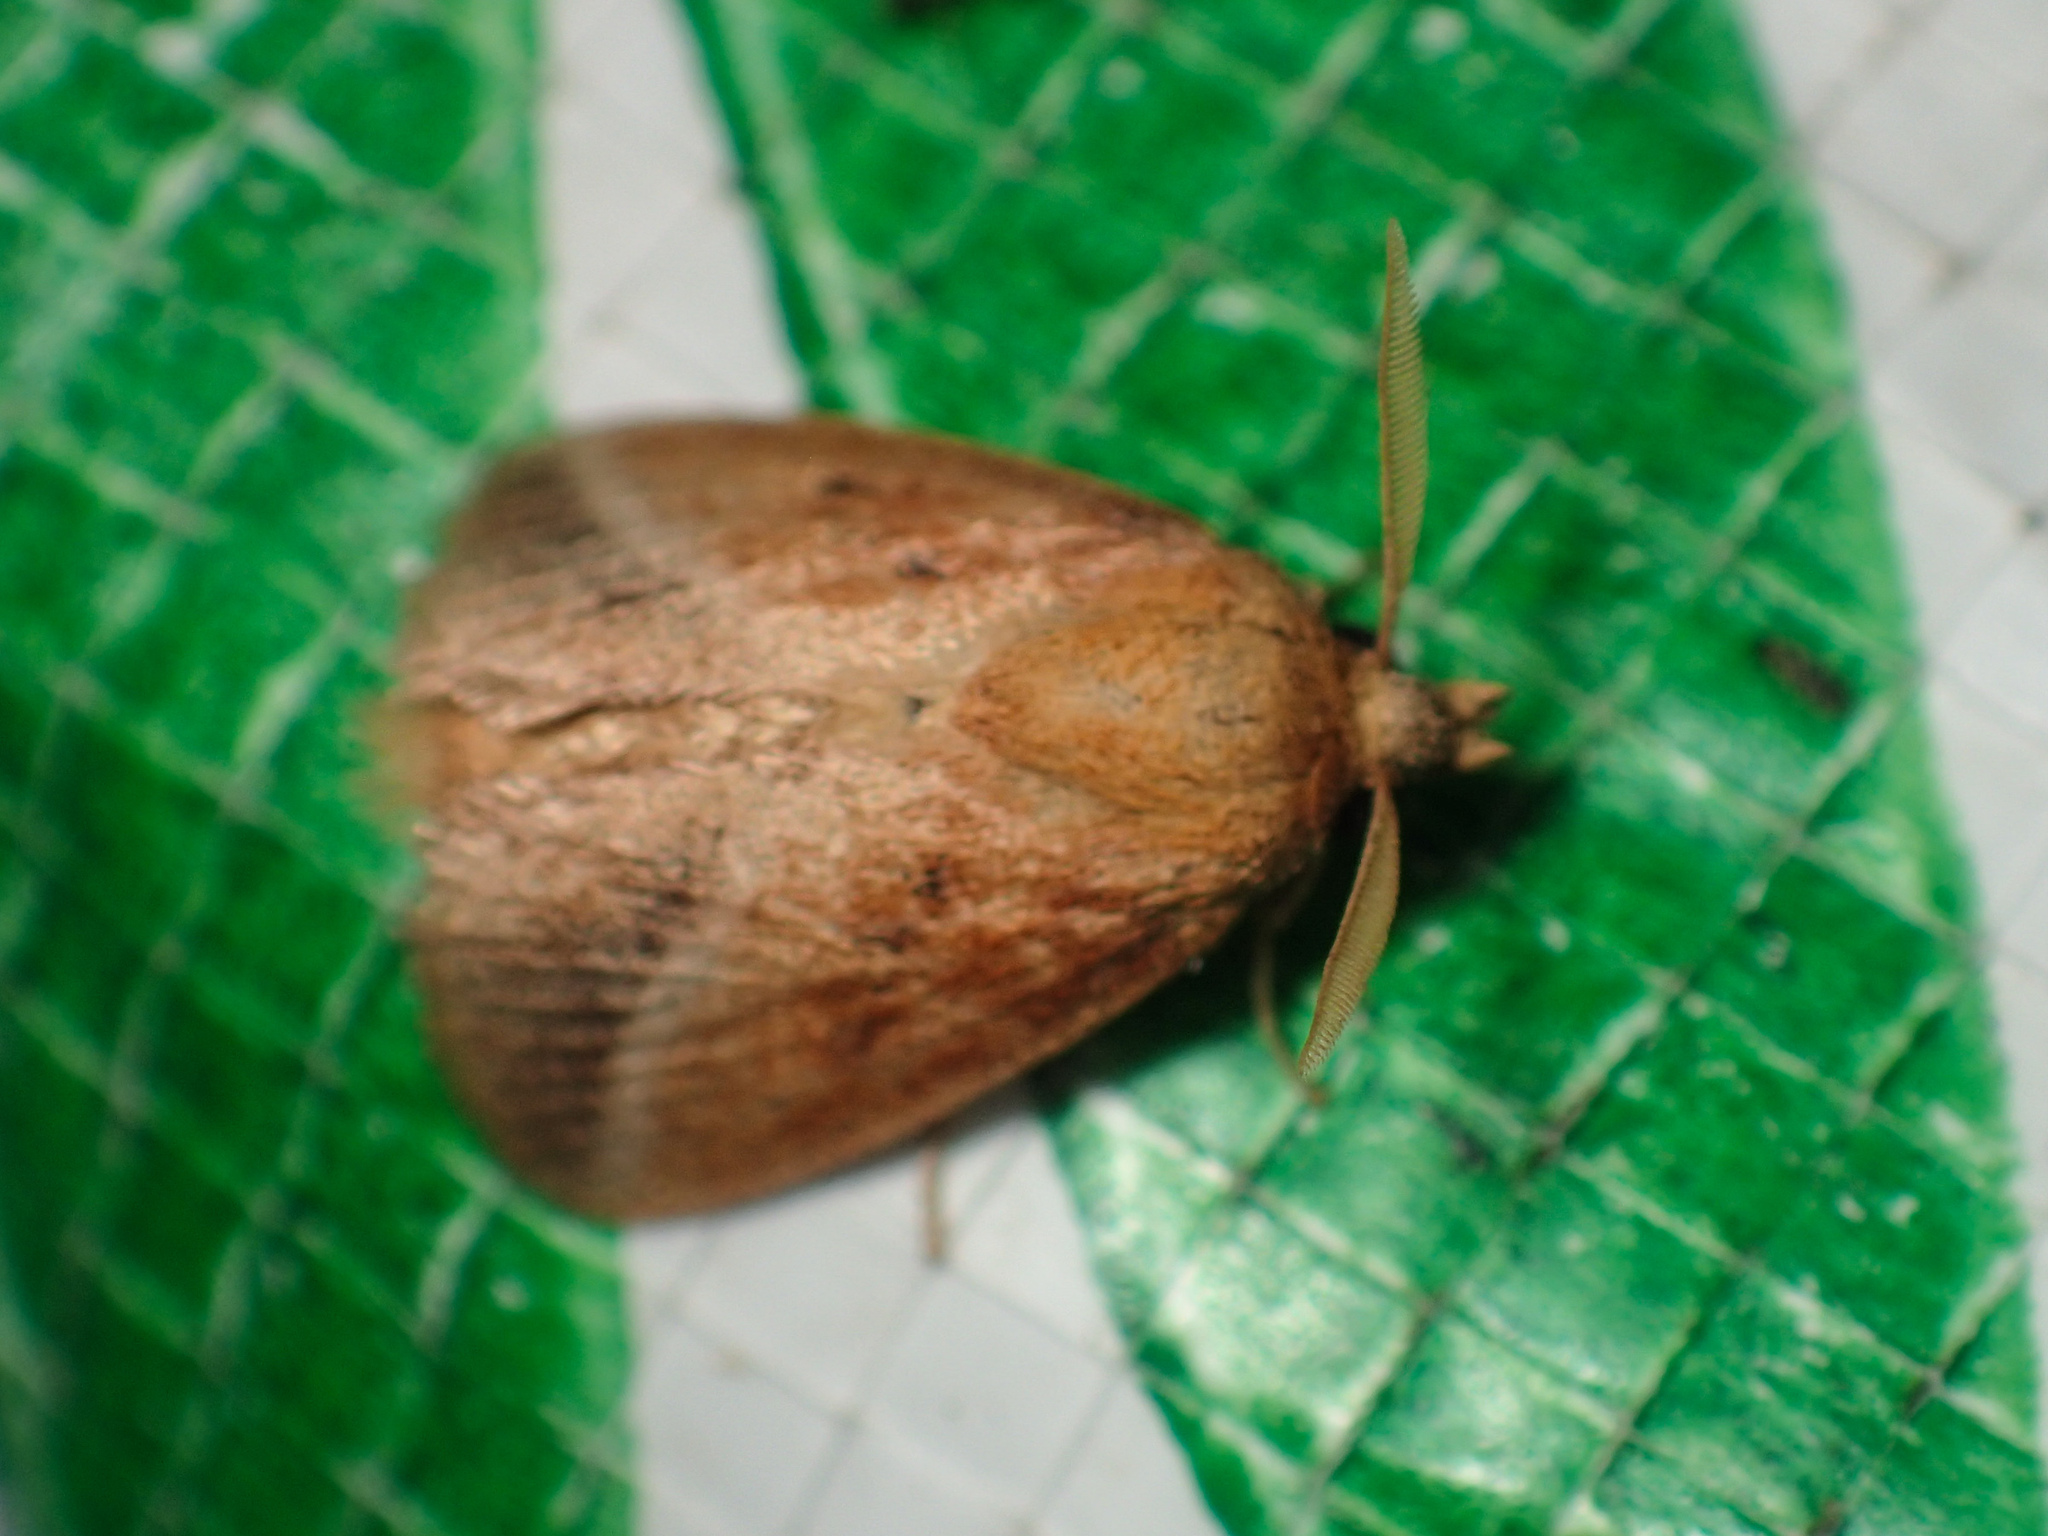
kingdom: Animalia
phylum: Arthropoda
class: Insecta
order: Lepidoptera
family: Limacodidae
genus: Oxyplax
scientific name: Oxyplax pallivitta
